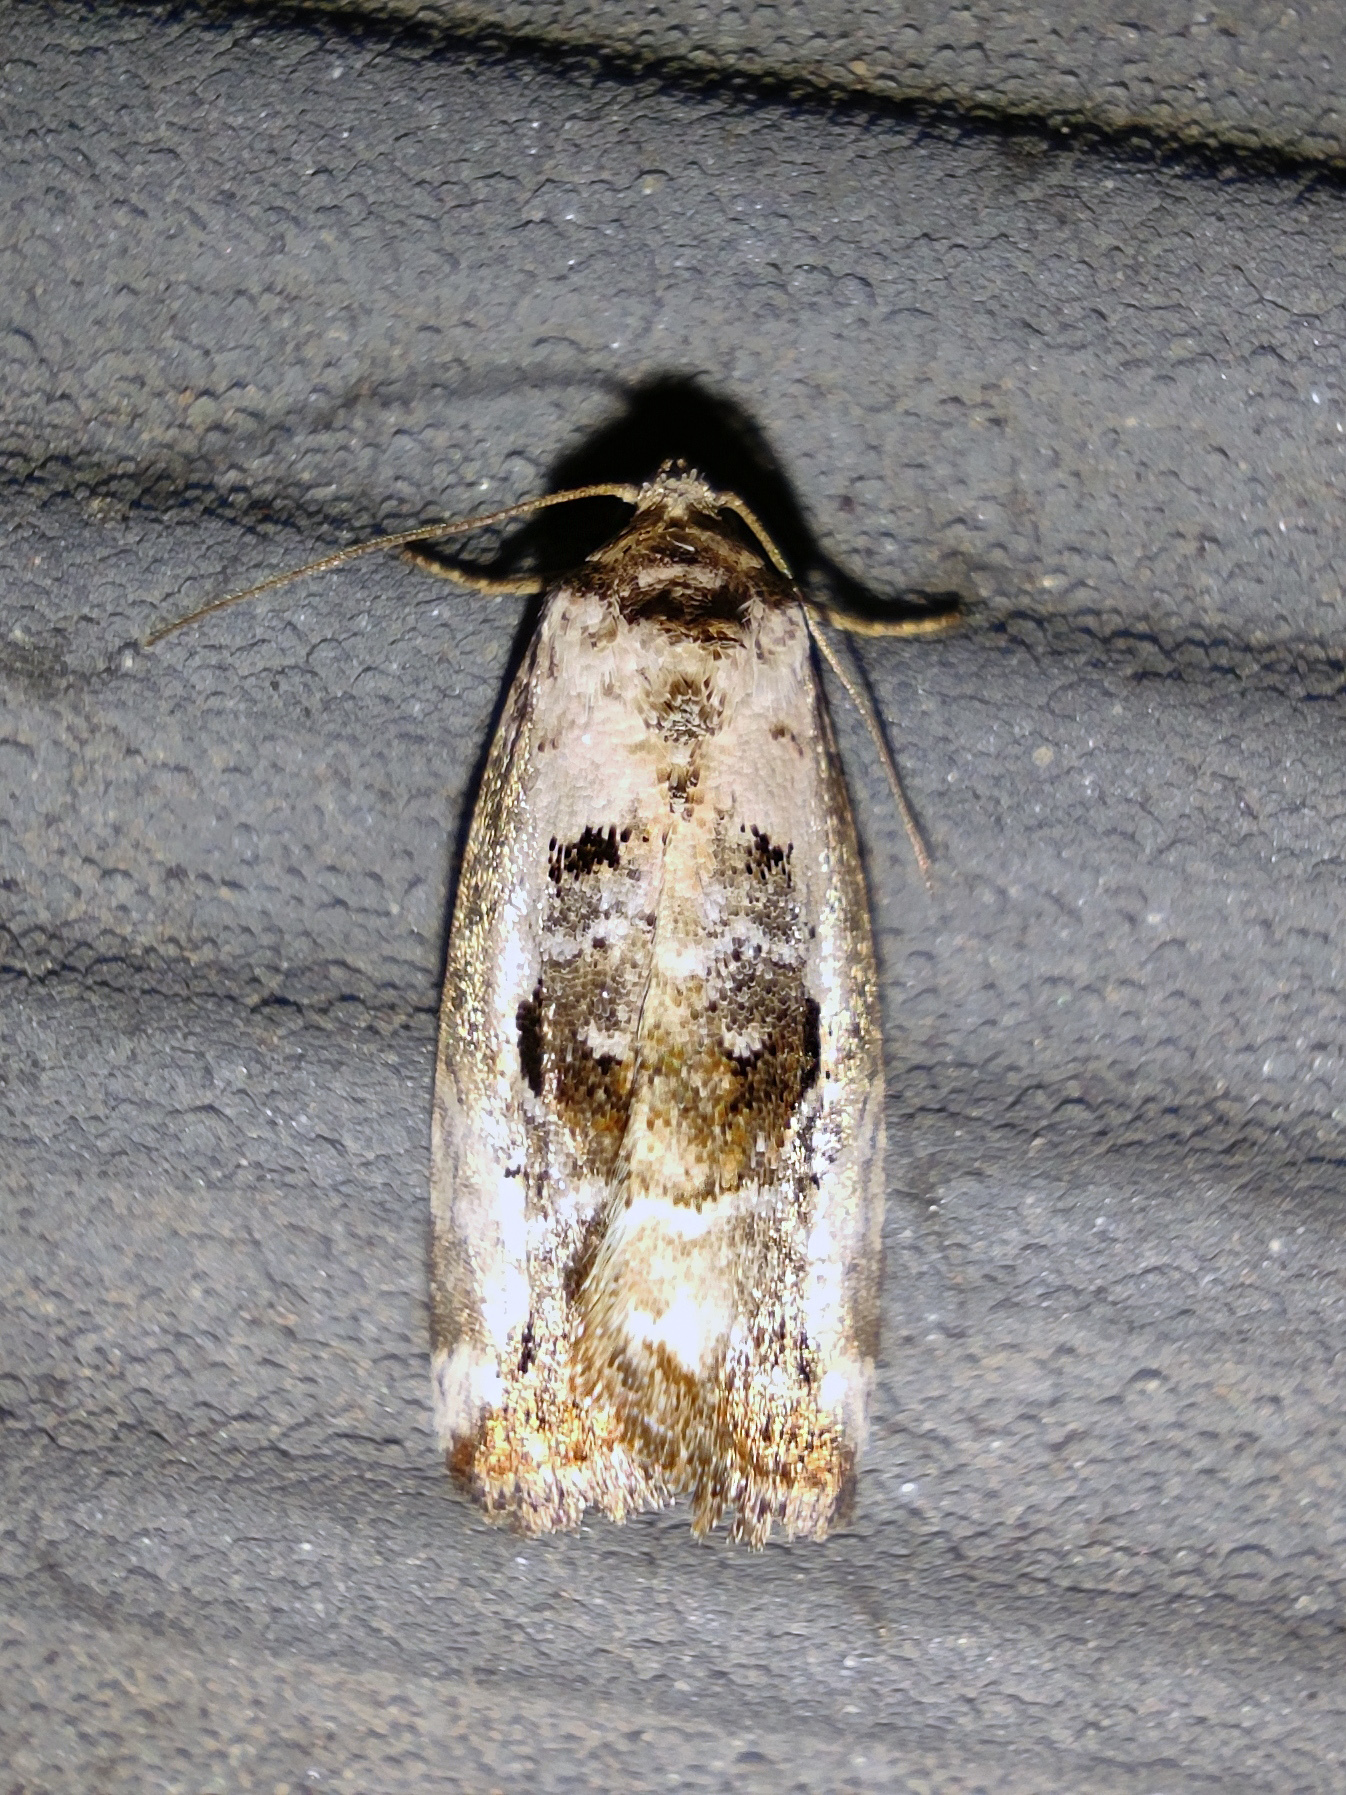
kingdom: Animalia
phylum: Arthropoda
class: Insecta
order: Lepidoptera
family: Noctuidae
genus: Elaphria
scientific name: Elaphria venustula
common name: Rosy marbled
